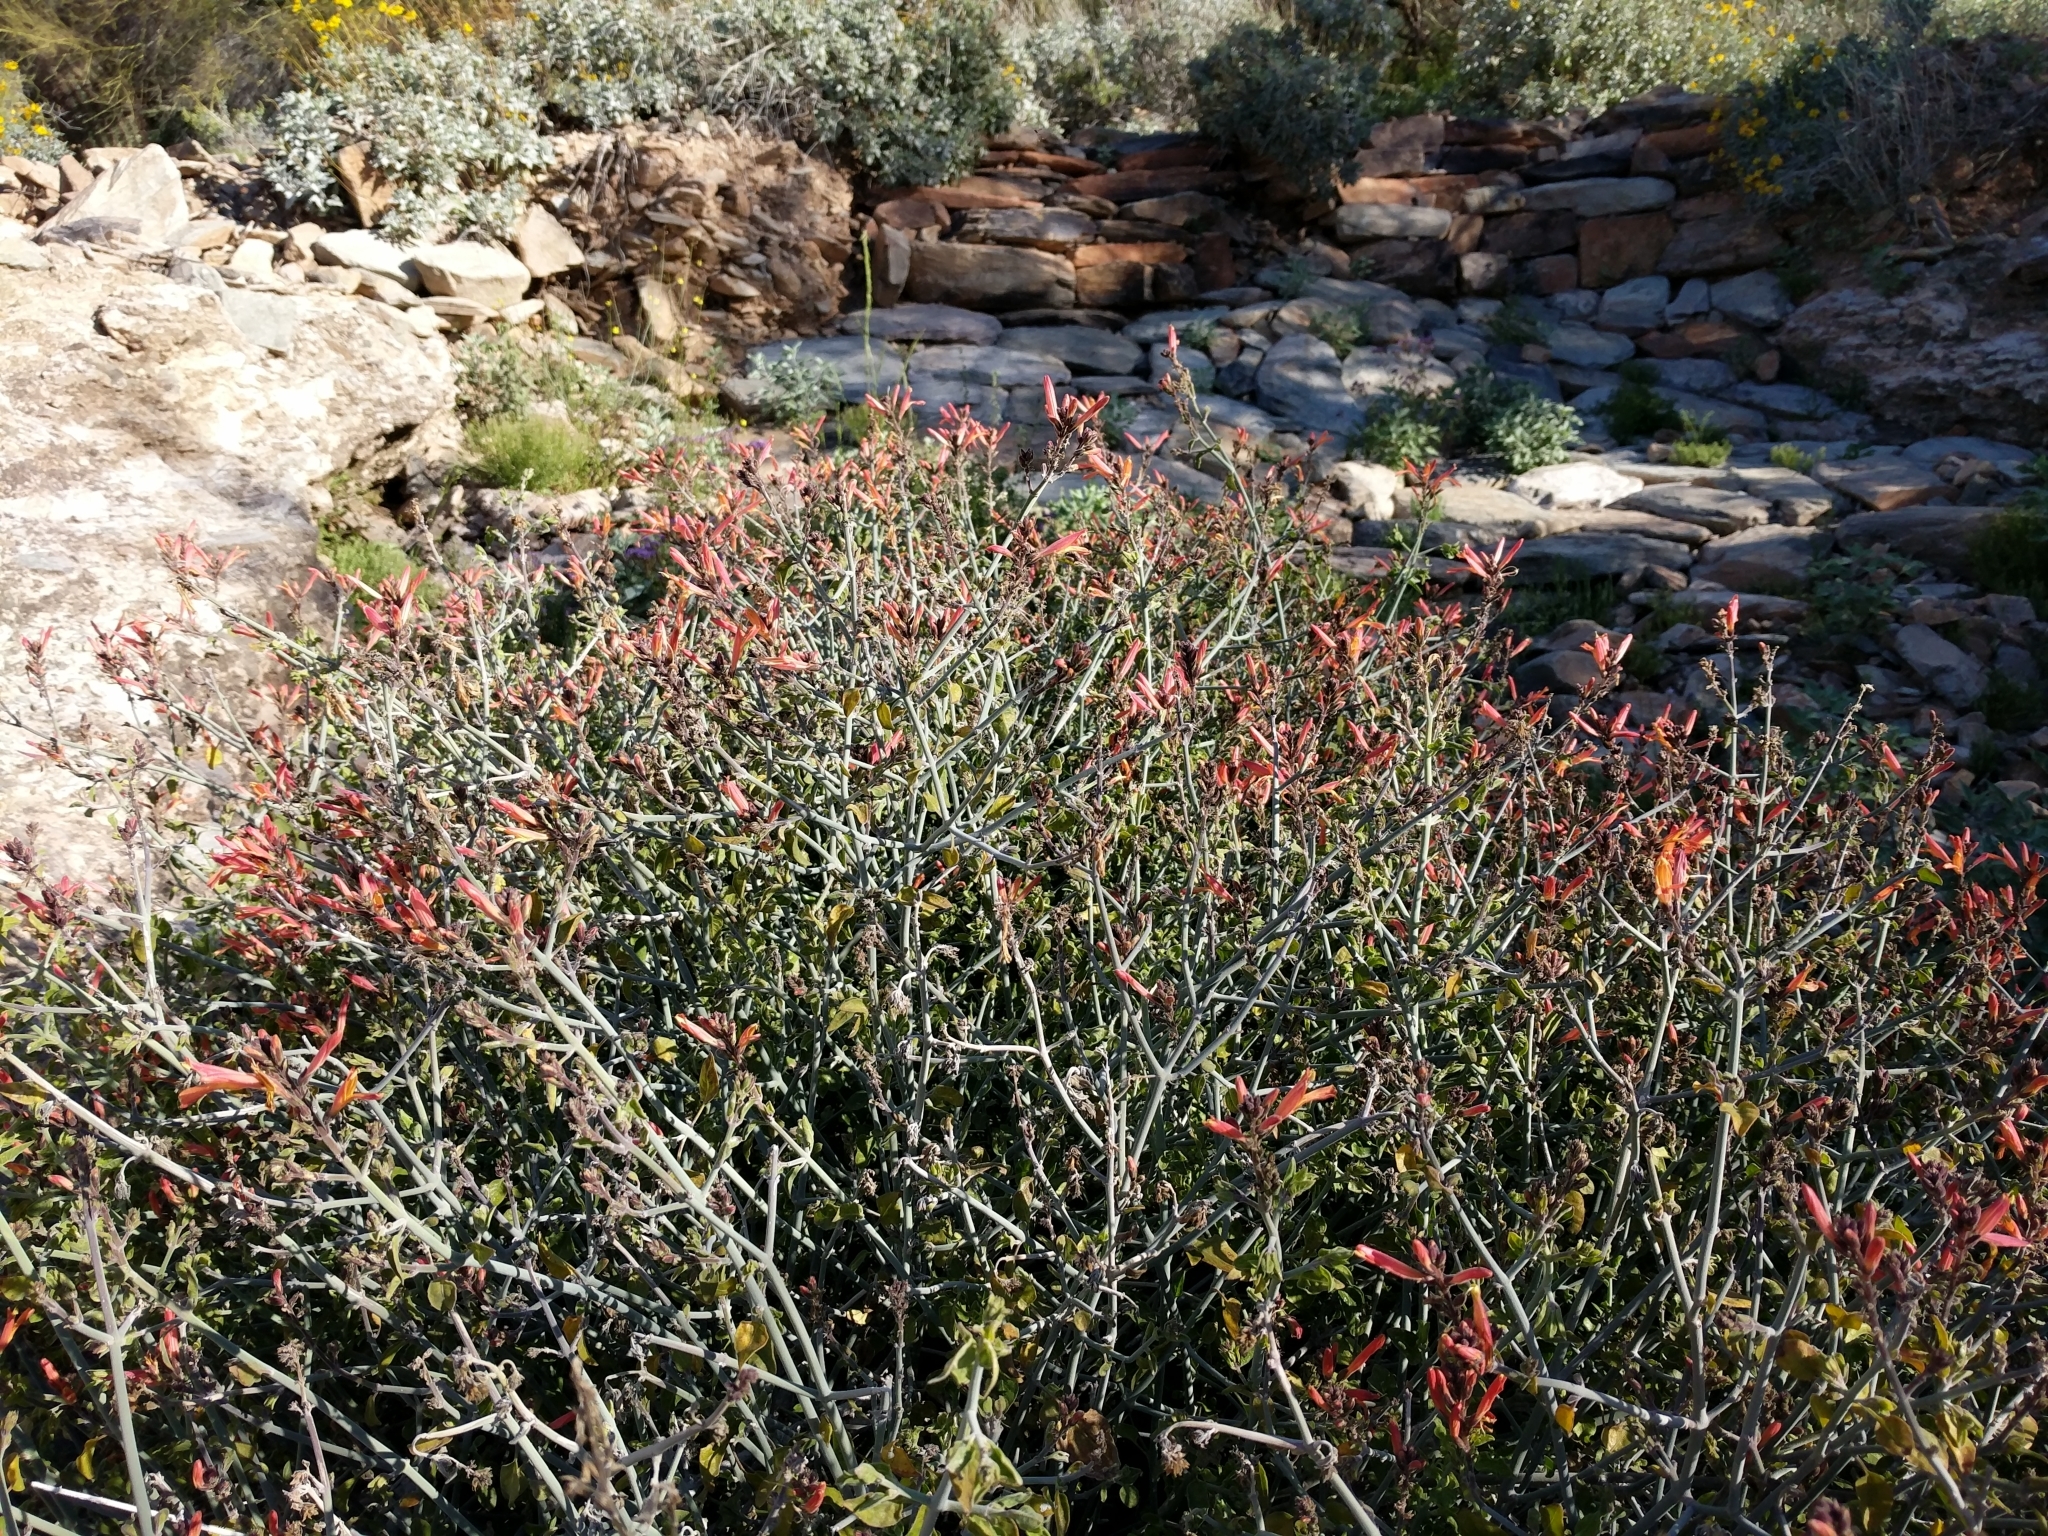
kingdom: Plantae
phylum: Tracheophyta
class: Magnoliopsida
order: Lamiales
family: Acanthaceae
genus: Justicia
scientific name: Justicia californica
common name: Chuparosa-honeysuckle
